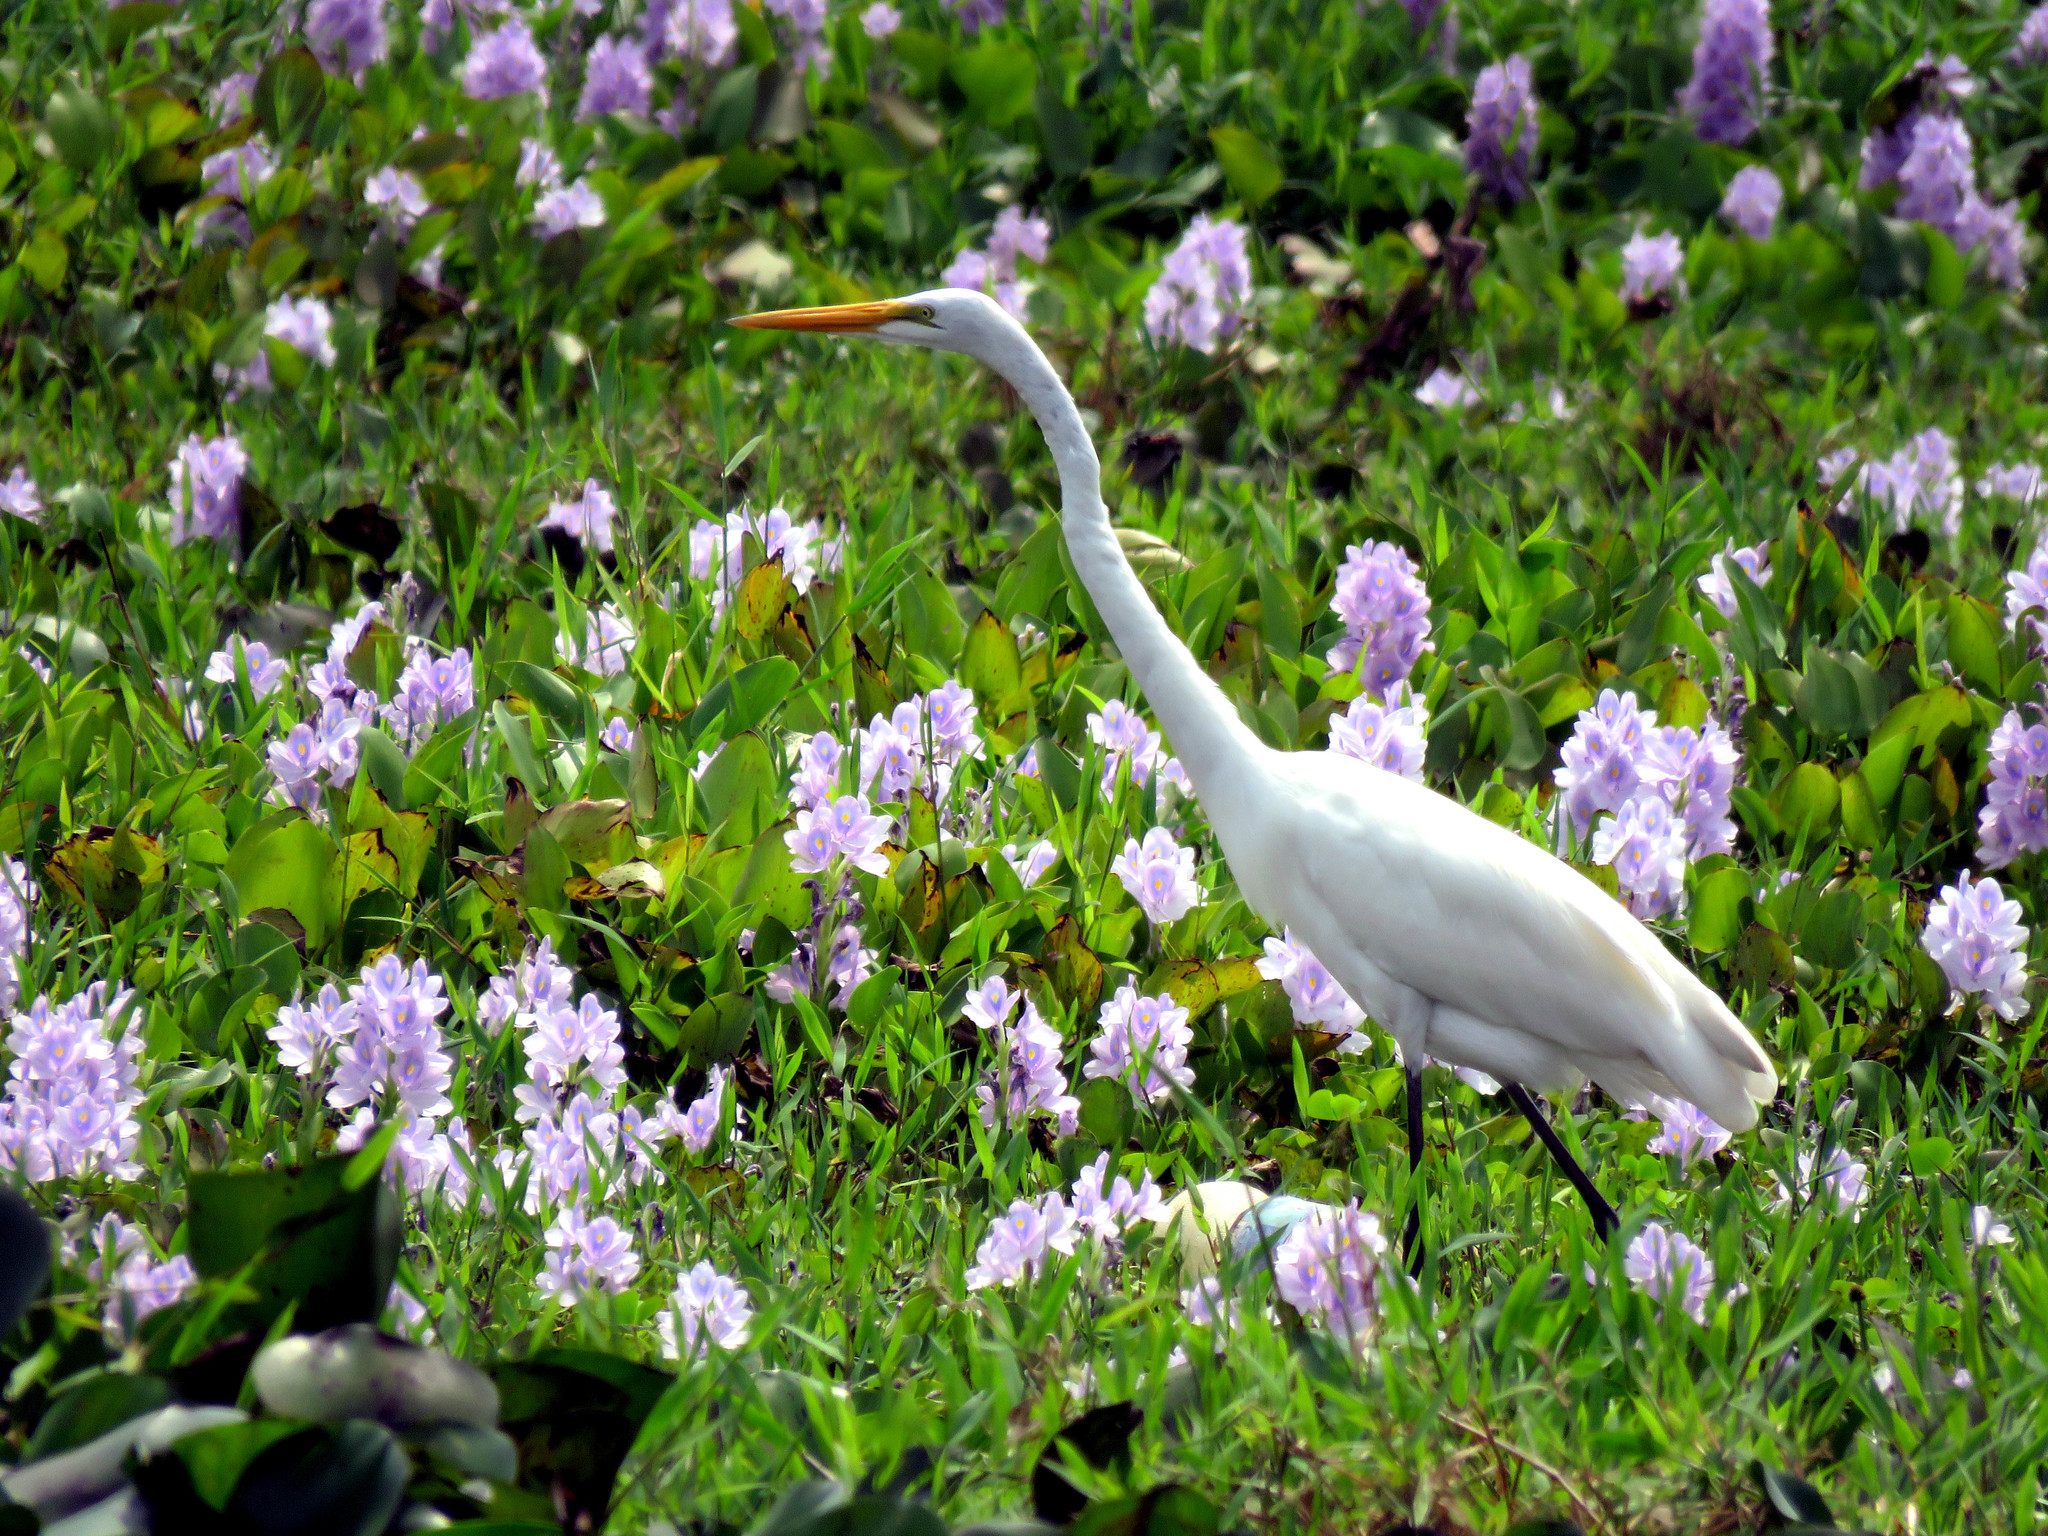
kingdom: Animalia
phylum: Chordata
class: Aves
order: Pelecaniformes
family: Ardeidae
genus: Ardea
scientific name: Ardea alba
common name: Great egret
